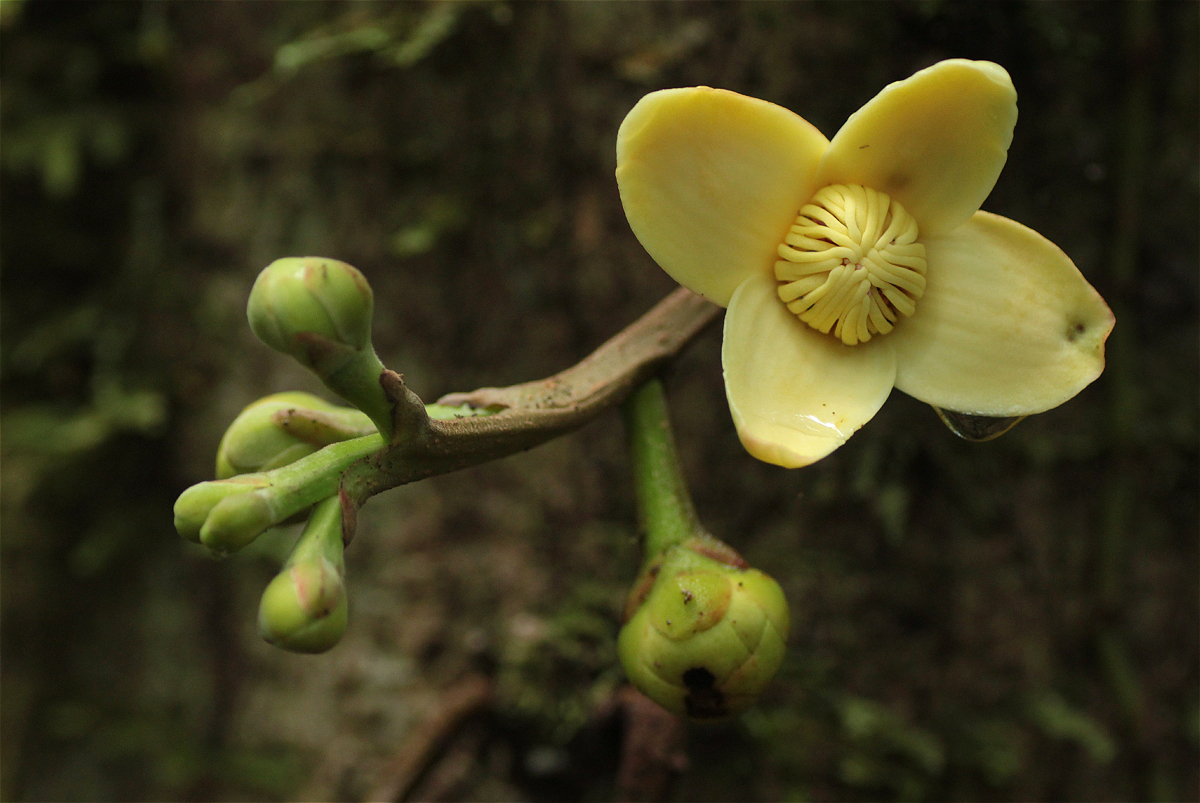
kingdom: Plantae
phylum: Tracheophyta
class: Magnoliopsida
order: Ericales
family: Lecythidaceae
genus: Grias
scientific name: Grias neuberthii
